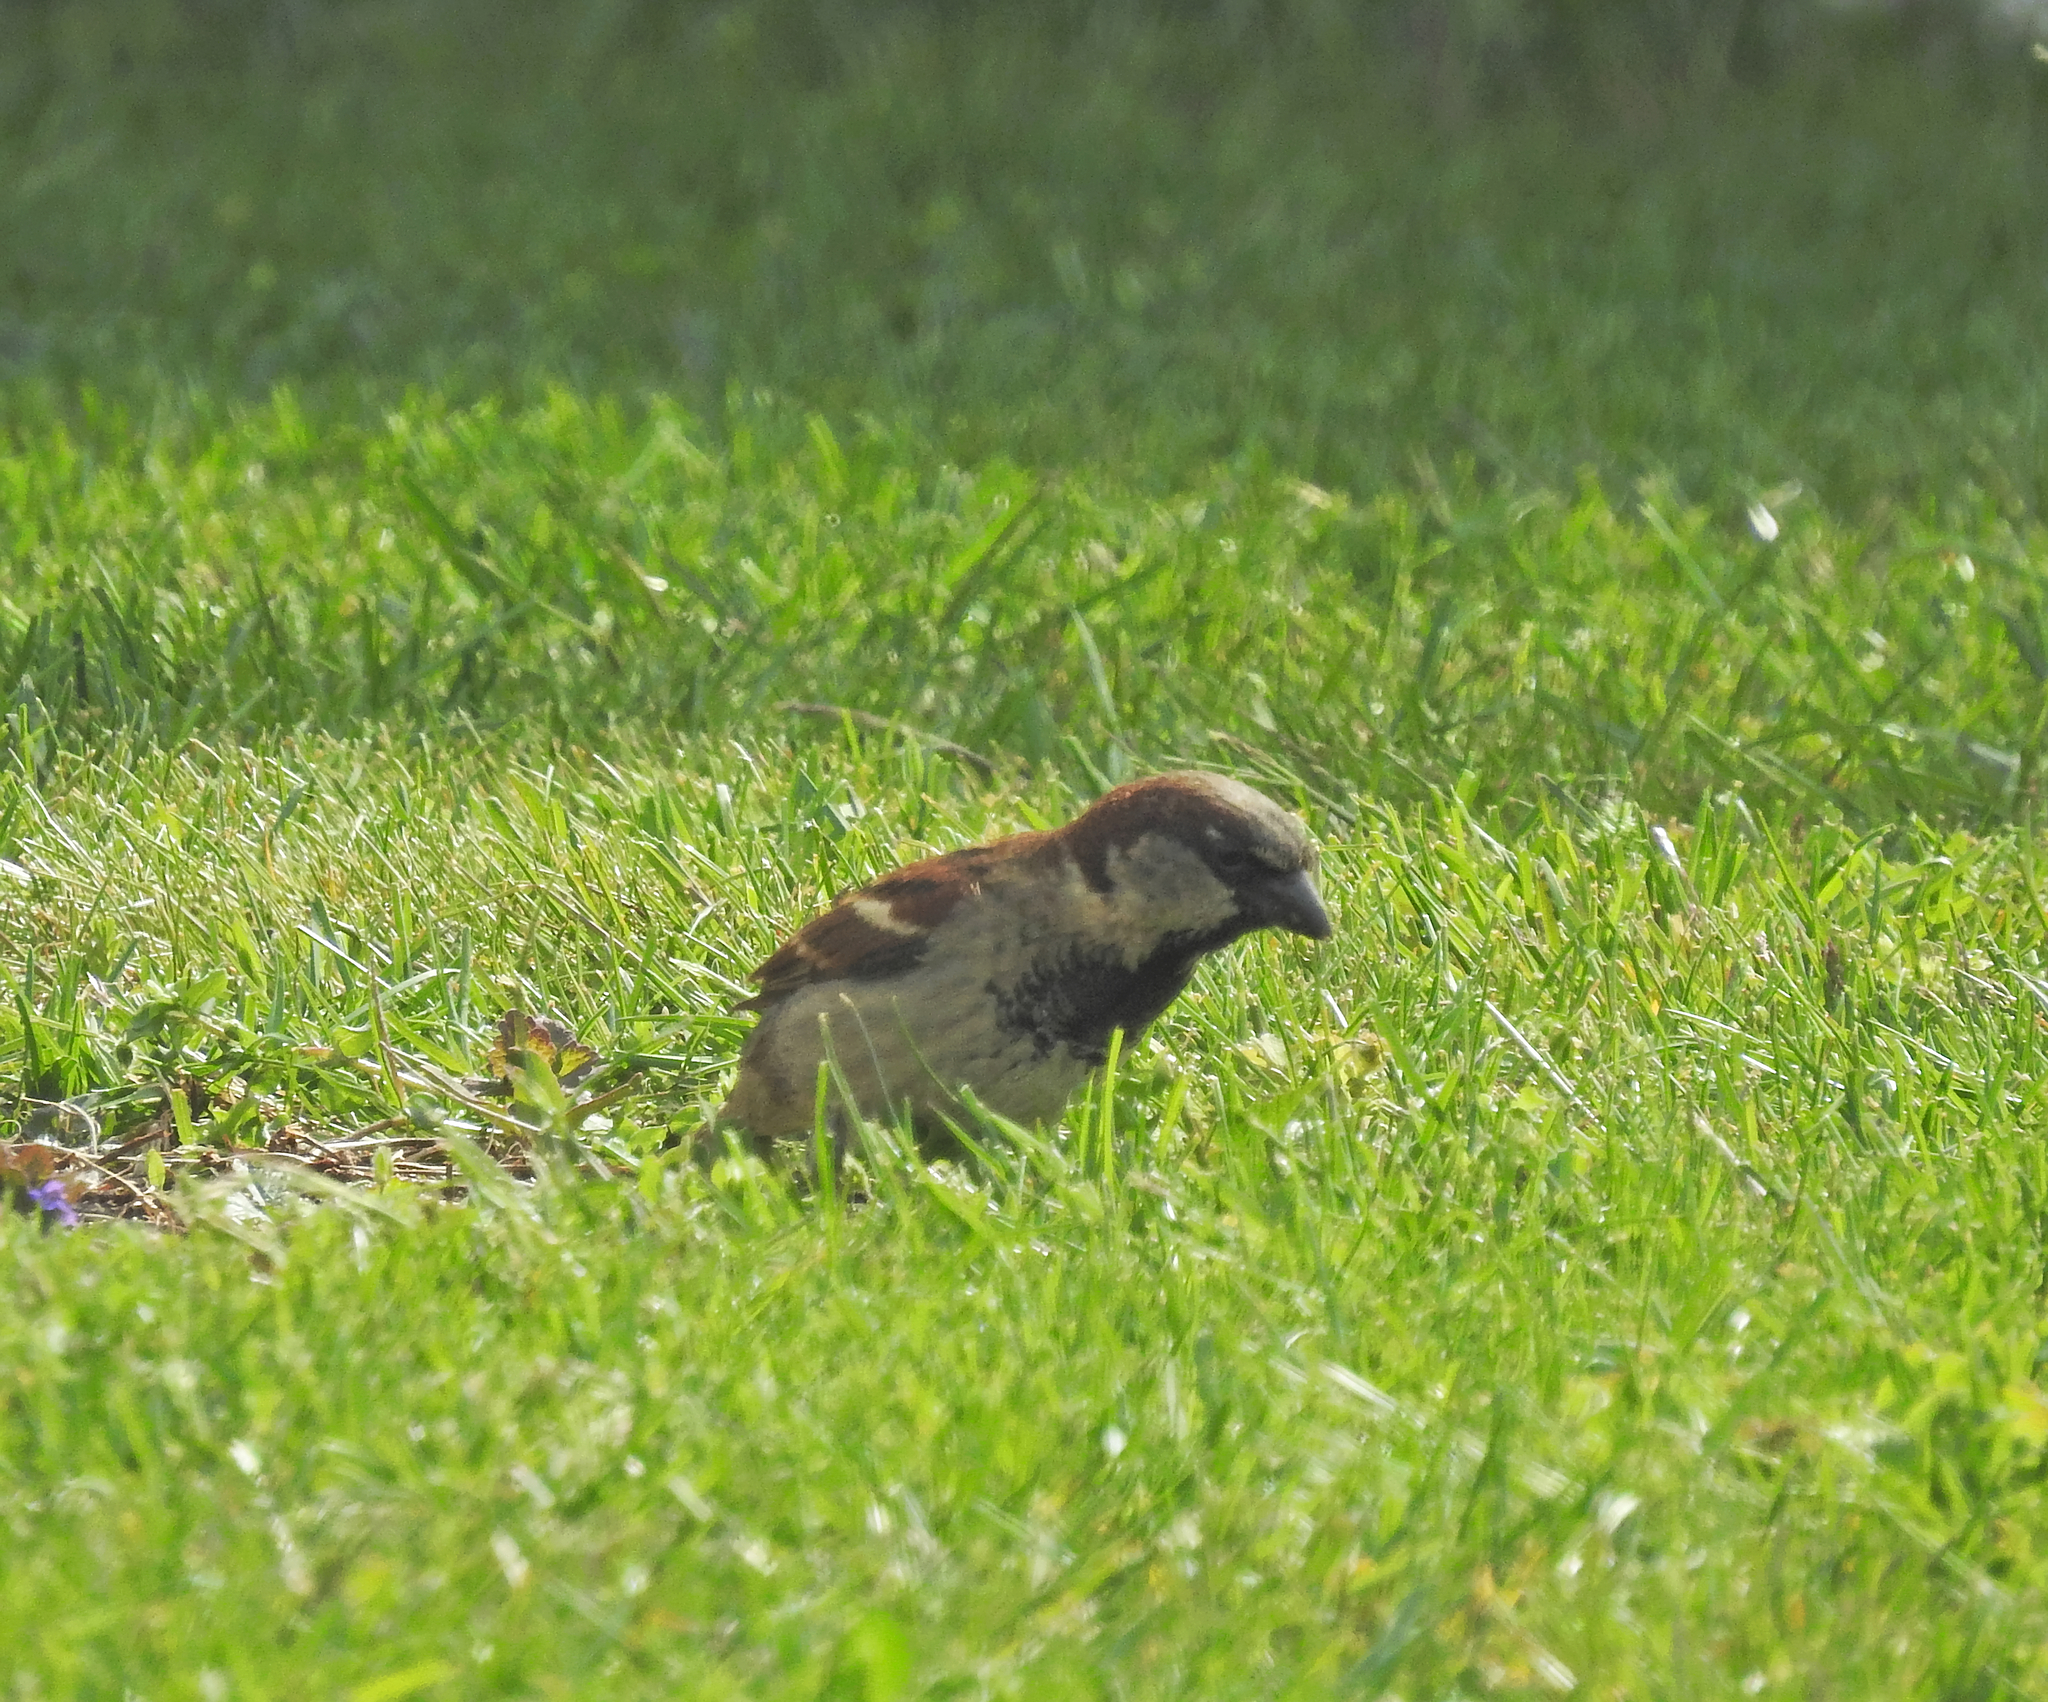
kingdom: Animalia
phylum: Chordata
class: Aves
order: Passeriformes
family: Passeridae
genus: Passer
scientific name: Passer domesticus
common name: House sparrow
